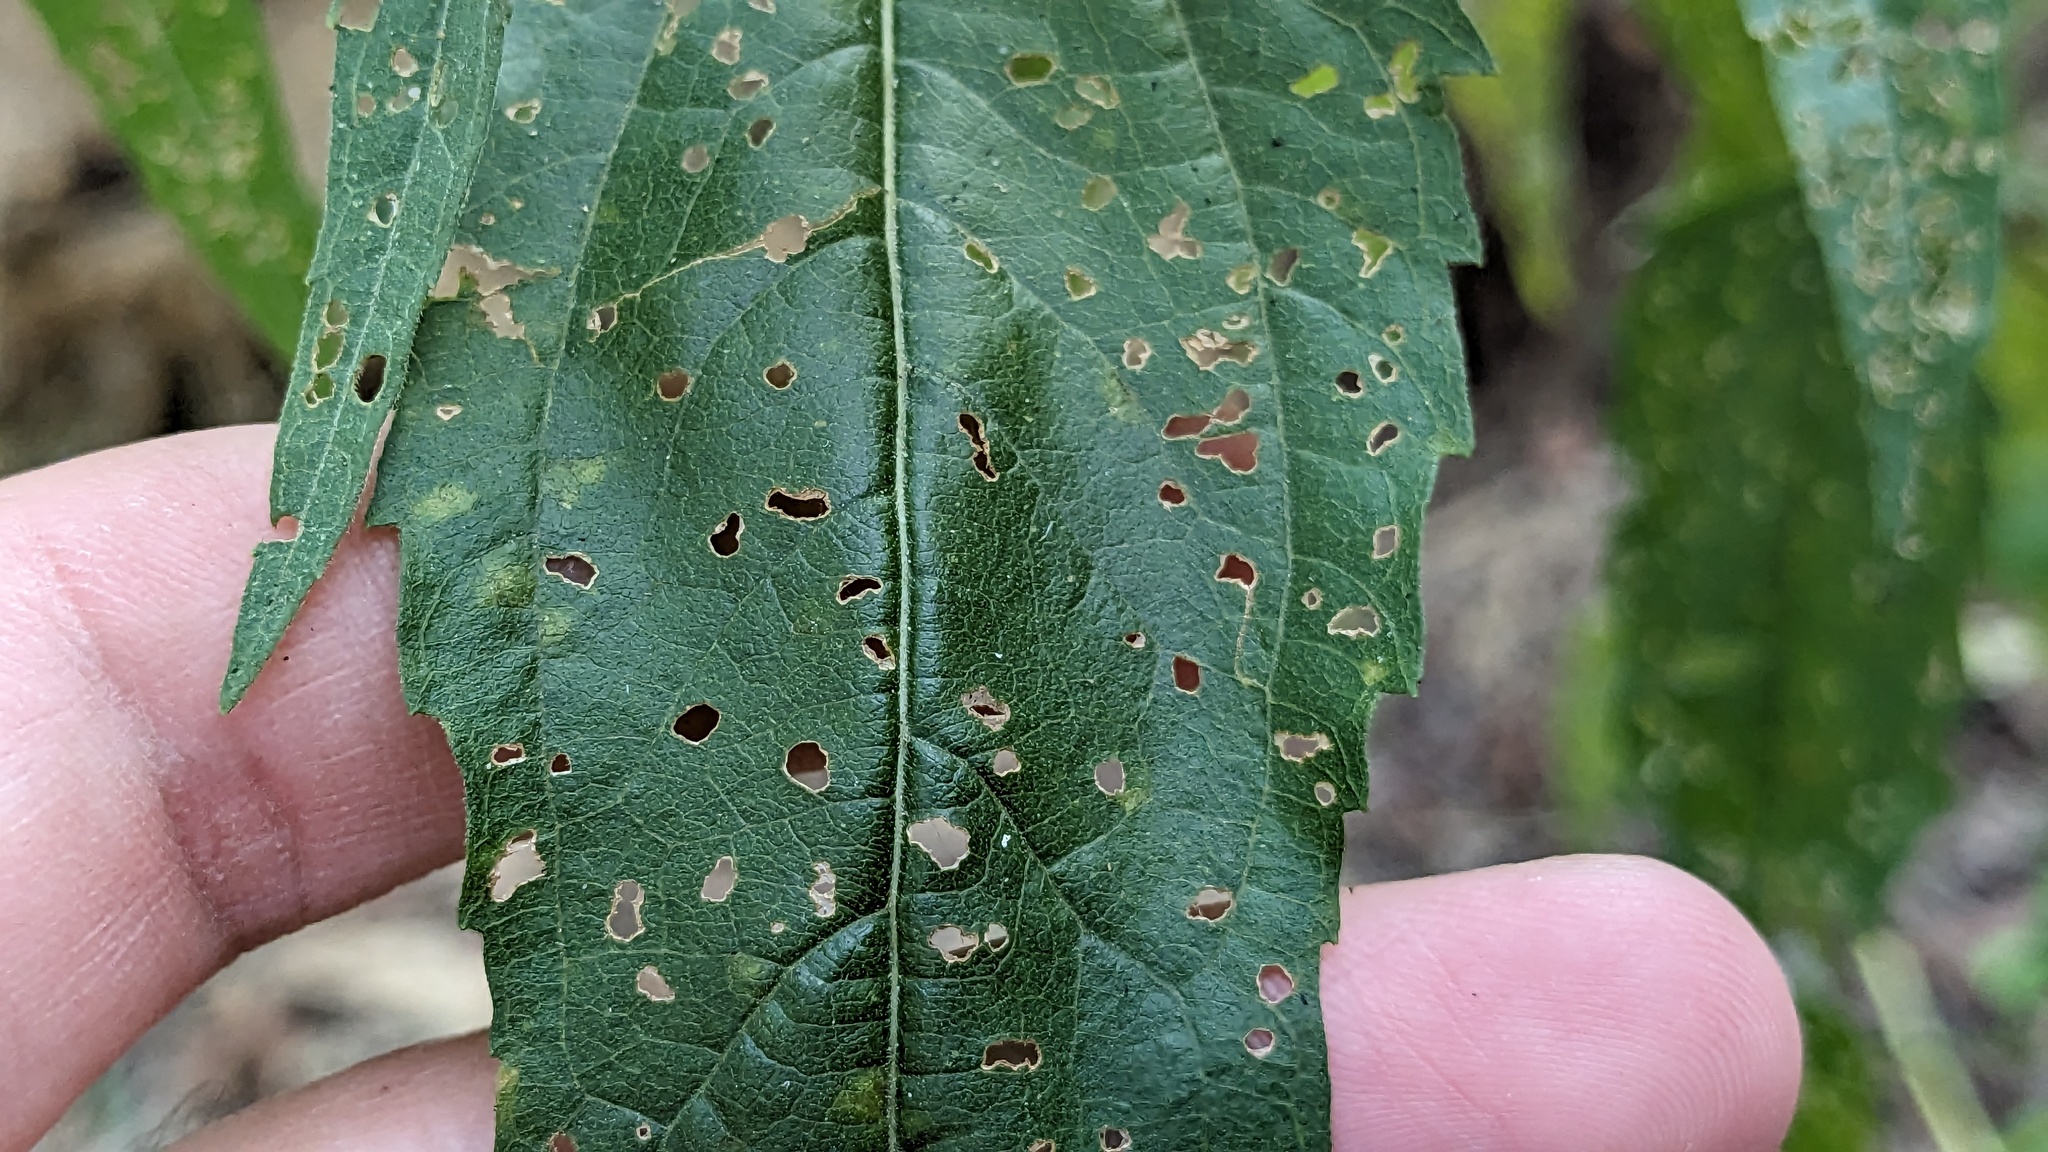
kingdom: Plantae
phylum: Tracheophyta
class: Magnoliopsida
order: Asterales
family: Asteraceae
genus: Eupatorium
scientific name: Eupatorium serotinum
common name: Late boneset
